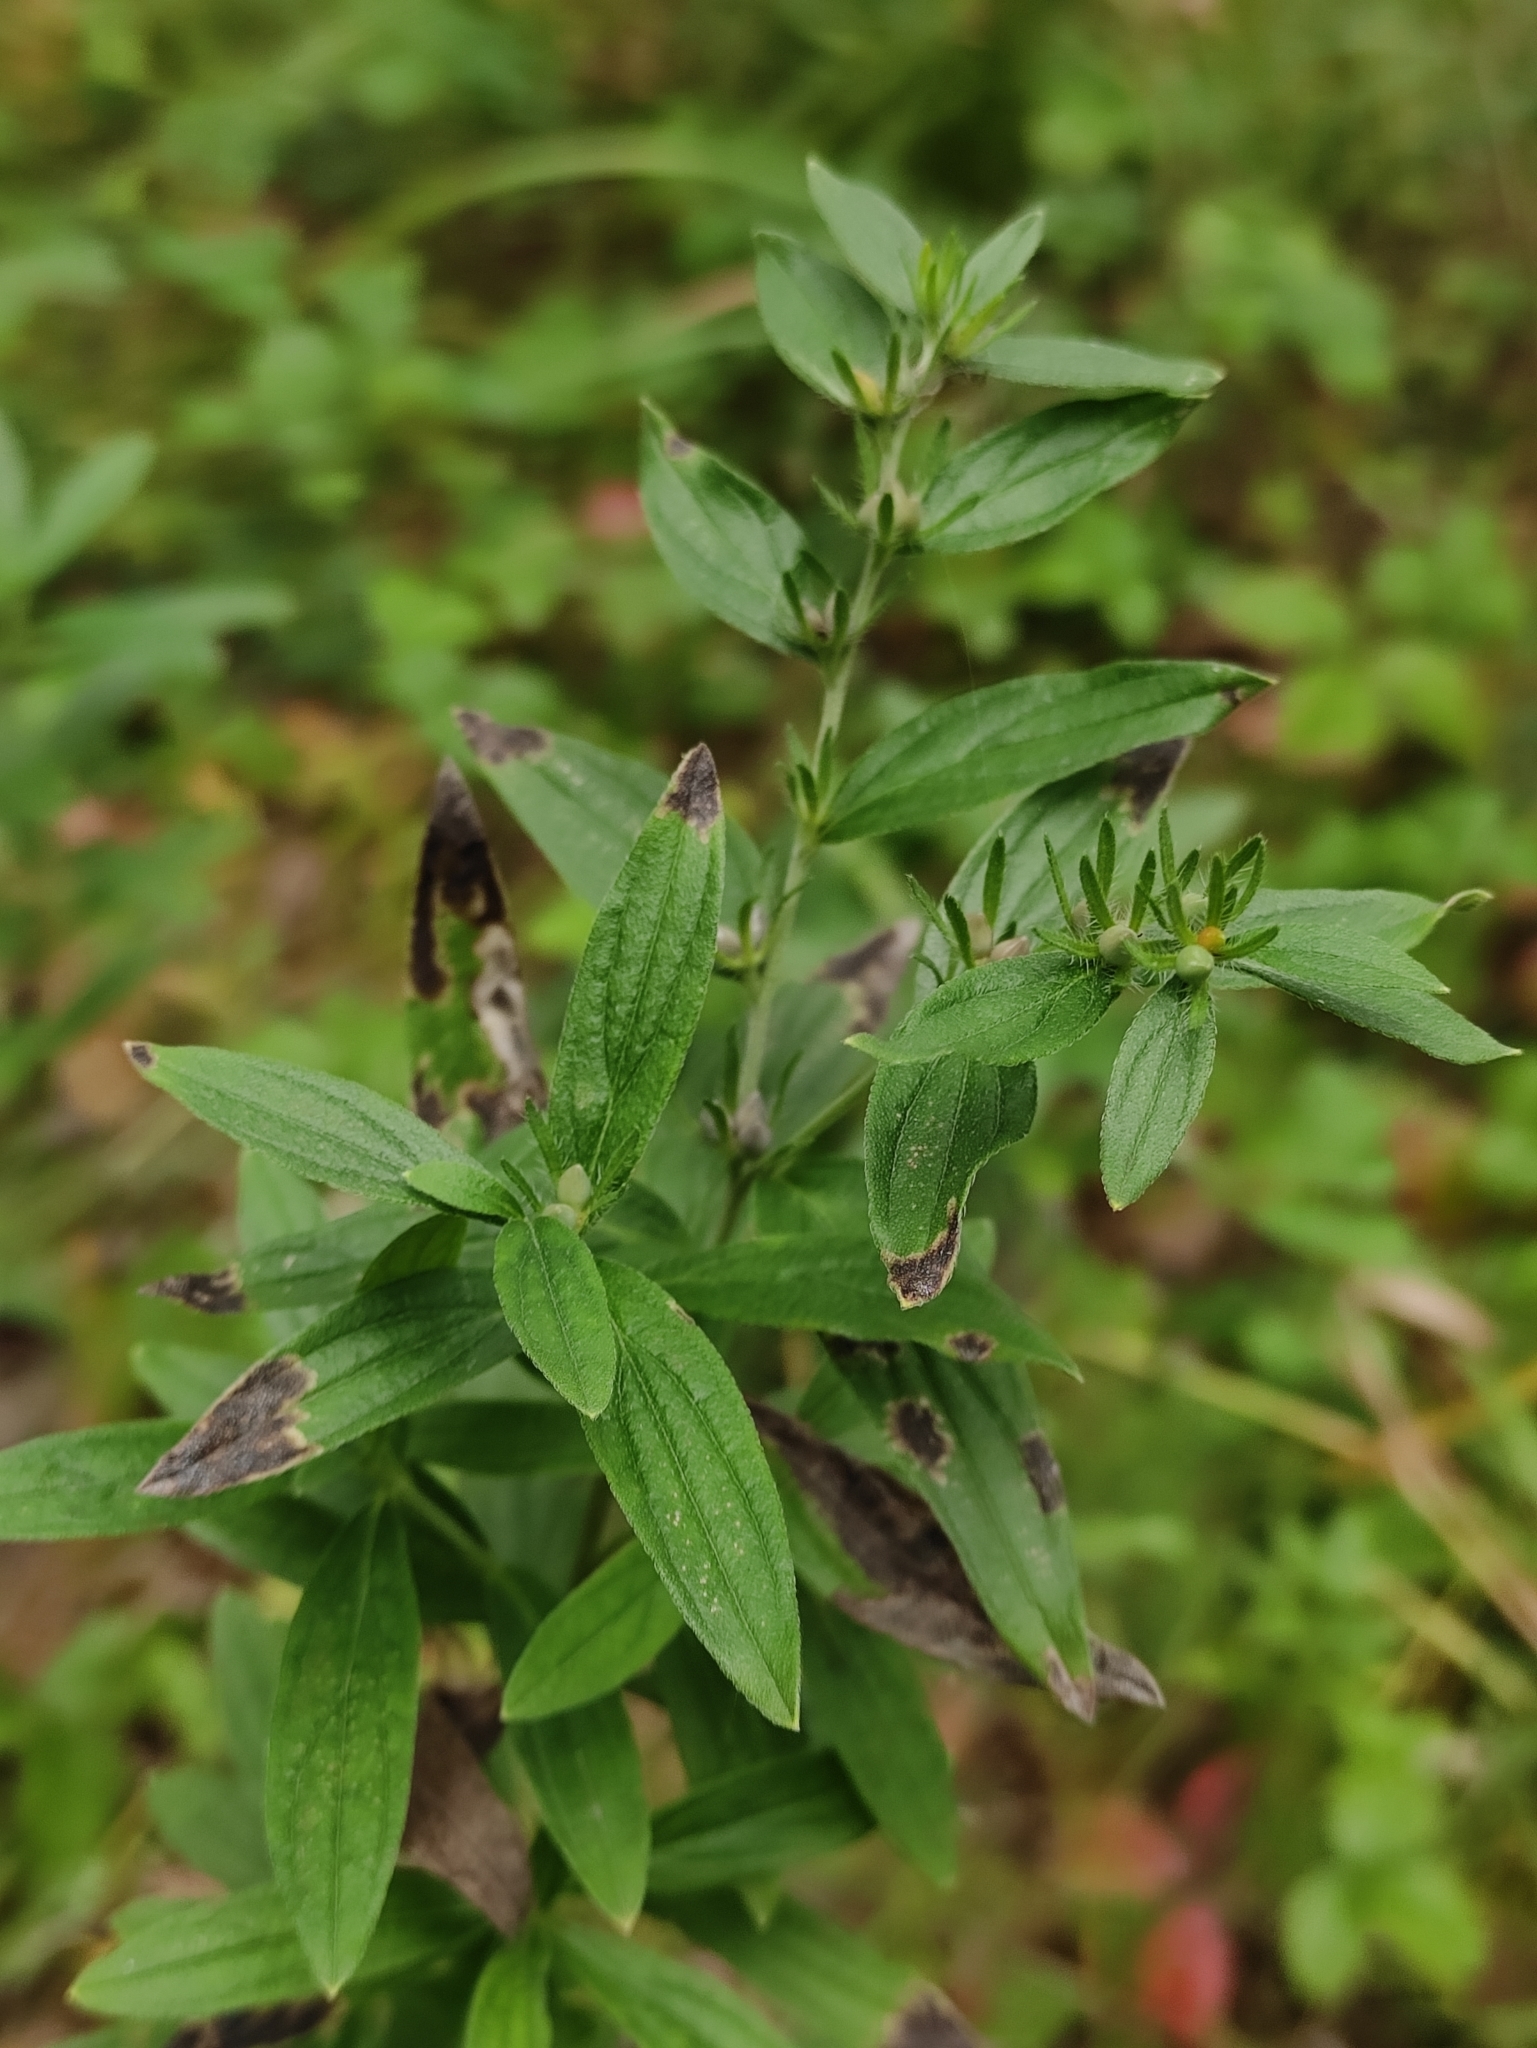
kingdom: Plantae
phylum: Tracheophyta
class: Magnoliopsida
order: Boraginales
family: Boraginaceae
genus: Lithospermum
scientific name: Lithospermum officinale
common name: Common gromwell
